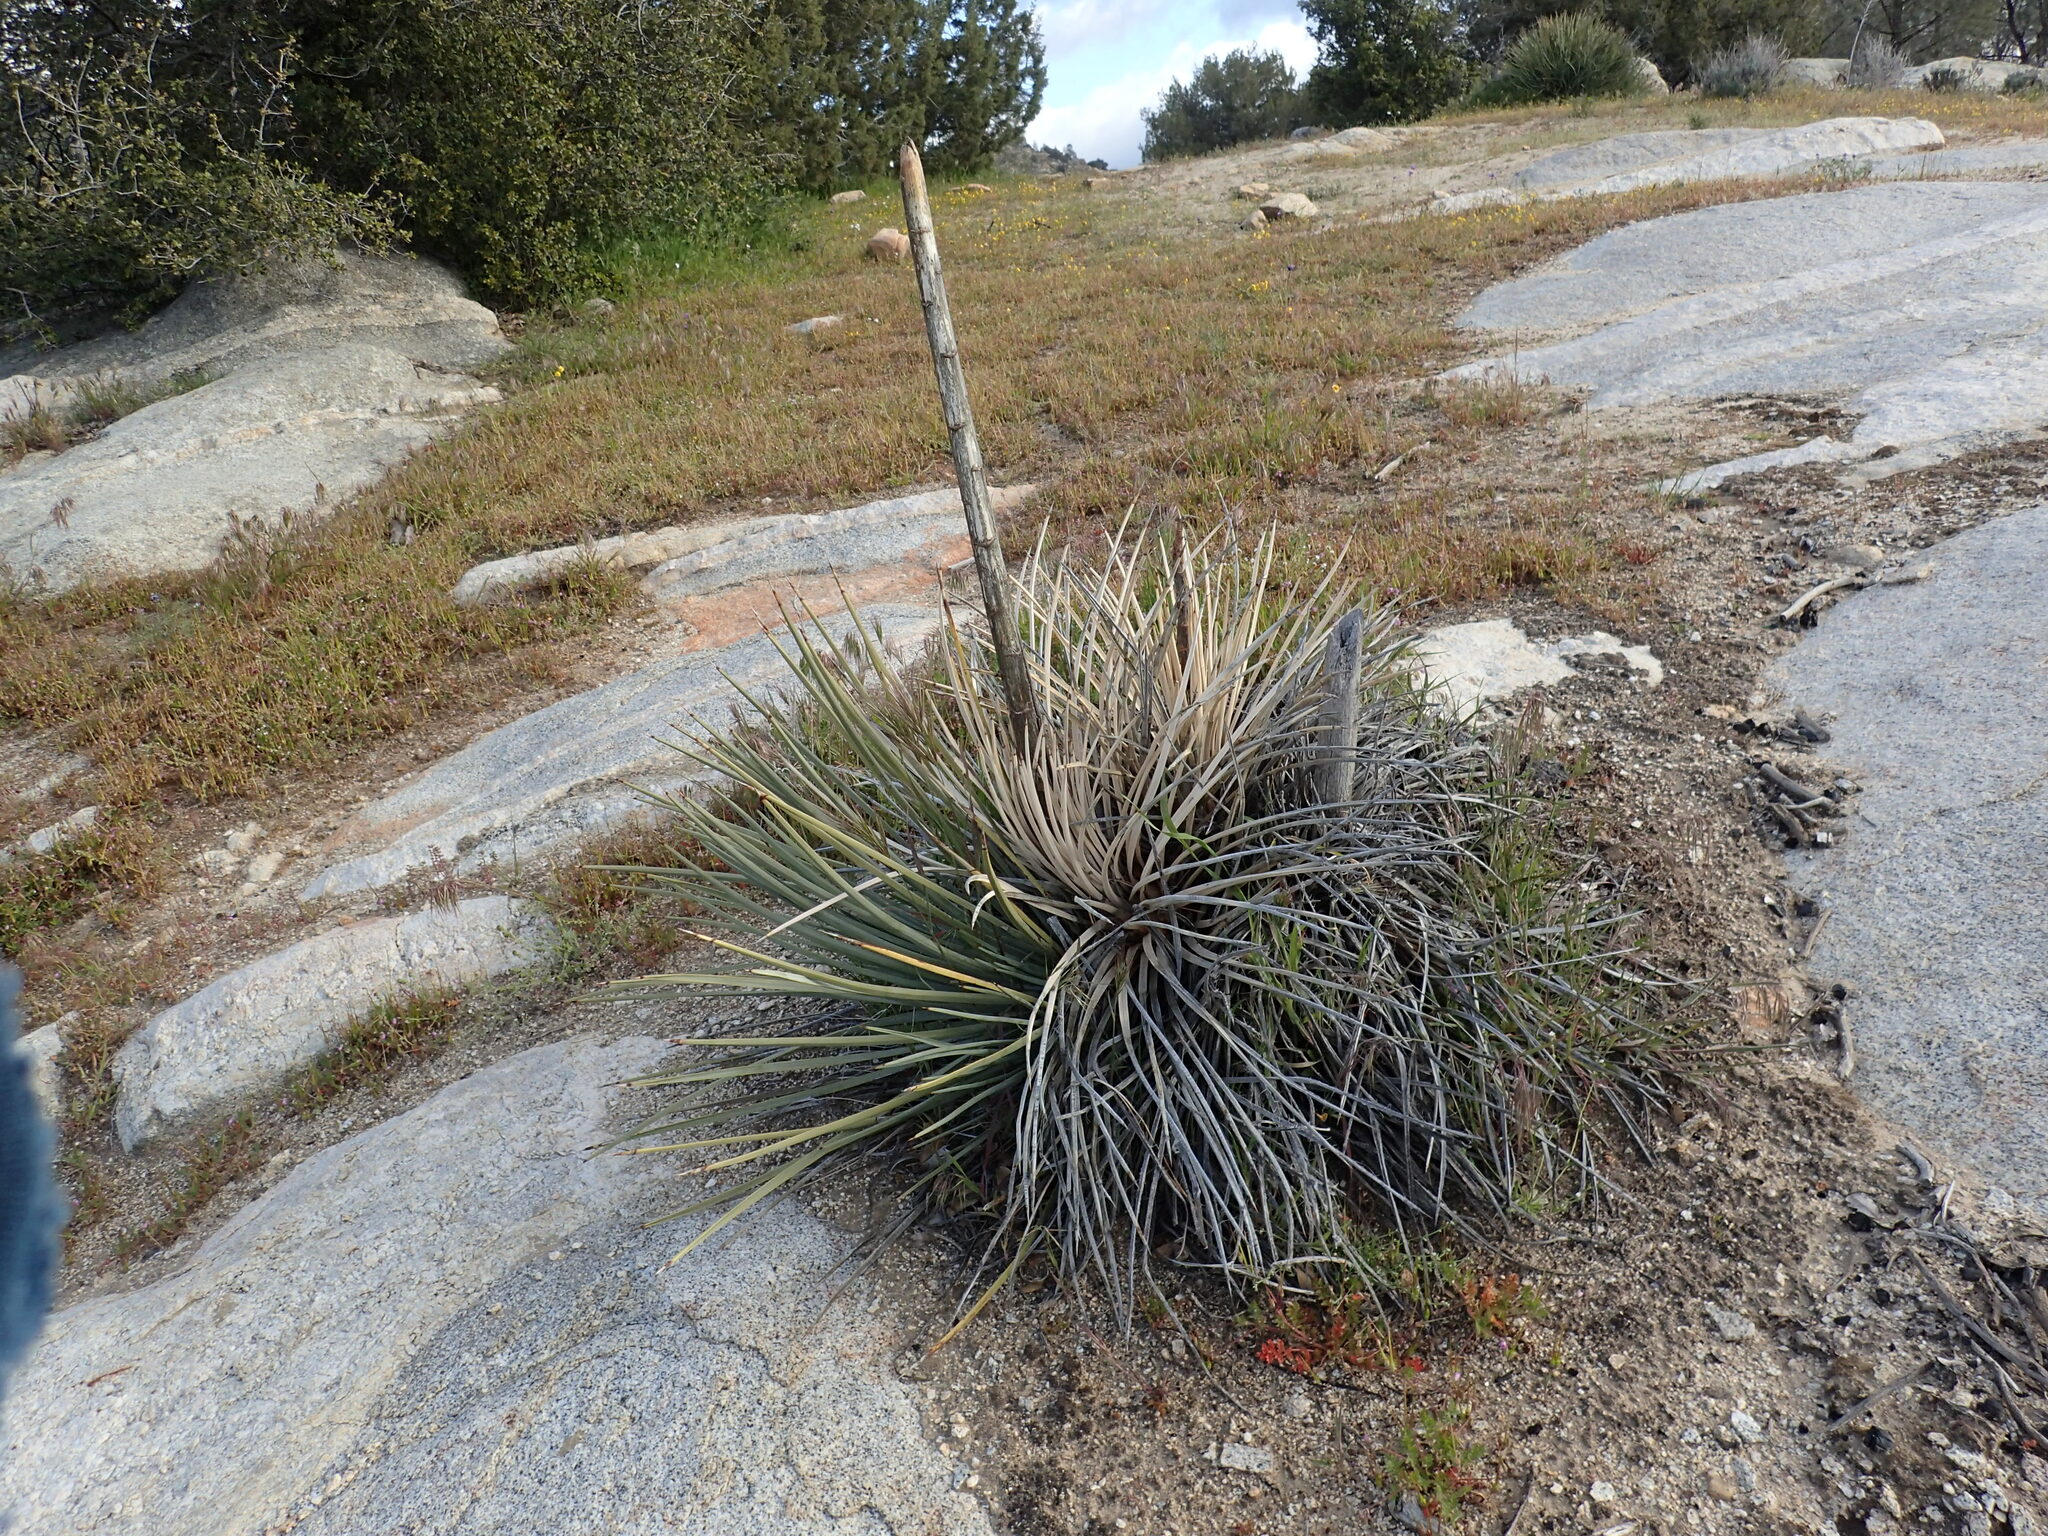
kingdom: Plantae
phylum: Tracheophyta
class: Liliopsida
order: Asparagales
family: Asparagaceae
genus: Hesperoyucca
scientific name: Hesperoyucca whipplei
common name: Our lord's-candle
